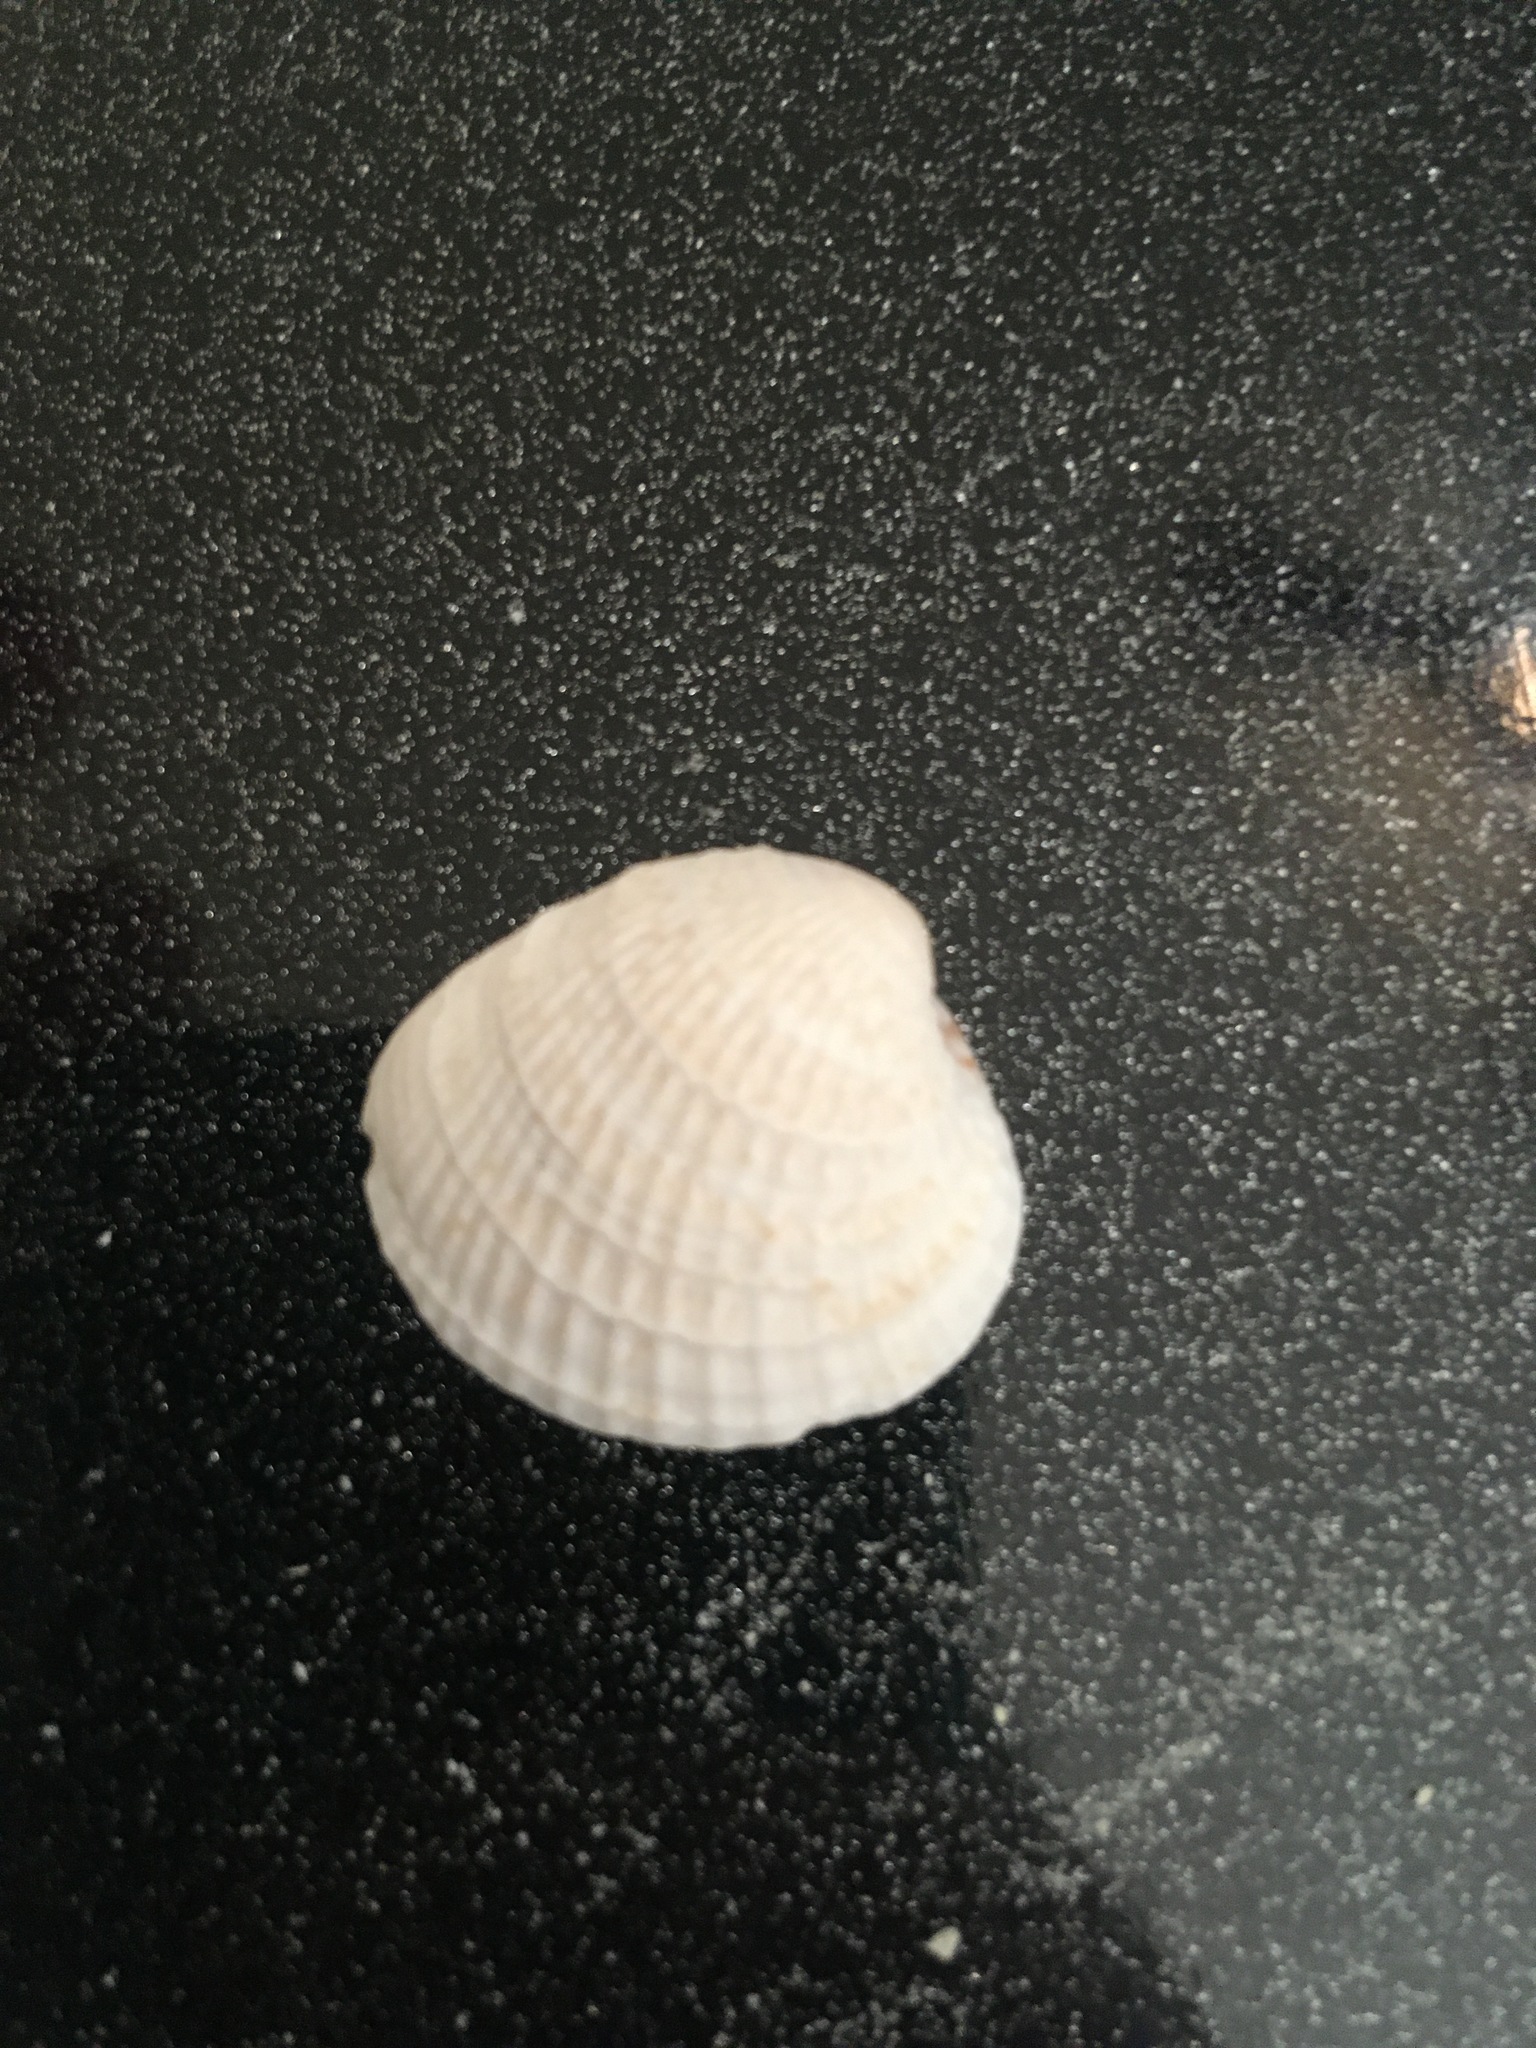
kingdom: Animalia
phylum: Mollusca
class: Bivalvia
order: Venerida
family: Veneridae
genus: Chione
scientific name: Chione elevata
